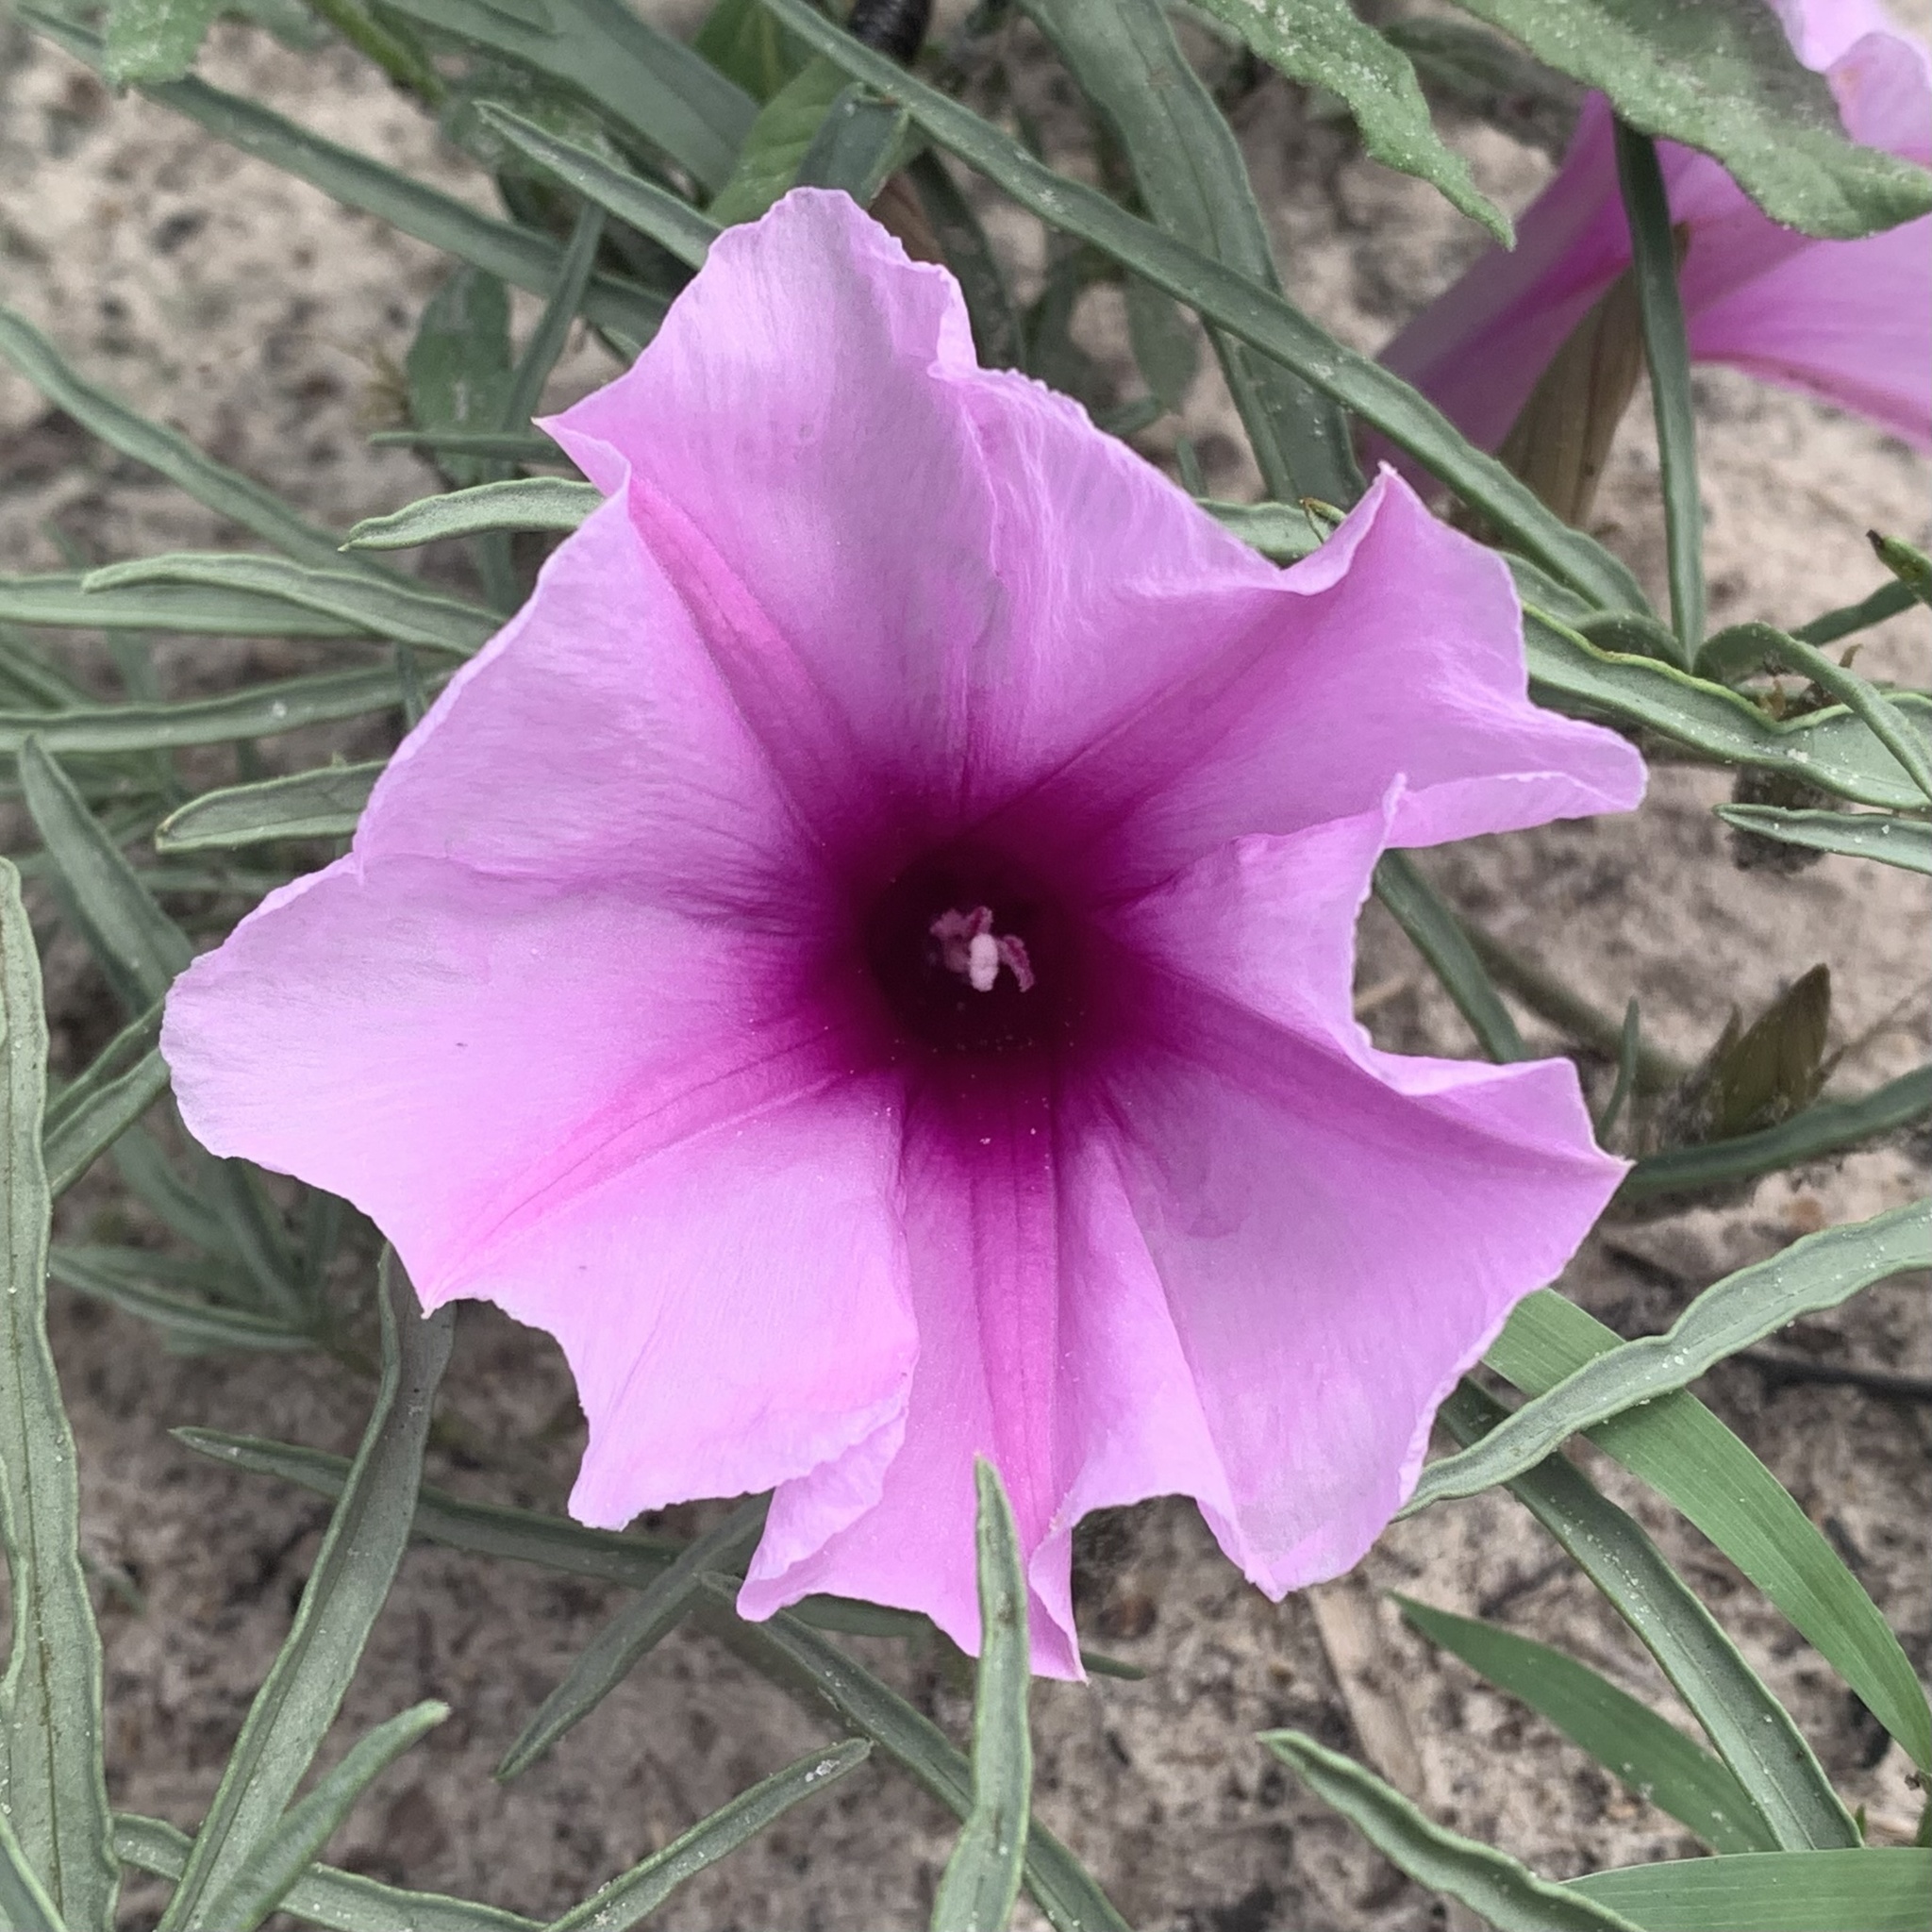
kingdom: Plantae
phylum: Tracheophyta
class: Magnoliopsida
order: Solanales
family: Convolvulaceae
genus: Ipomoea
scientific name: Ipomoea bolusiana
